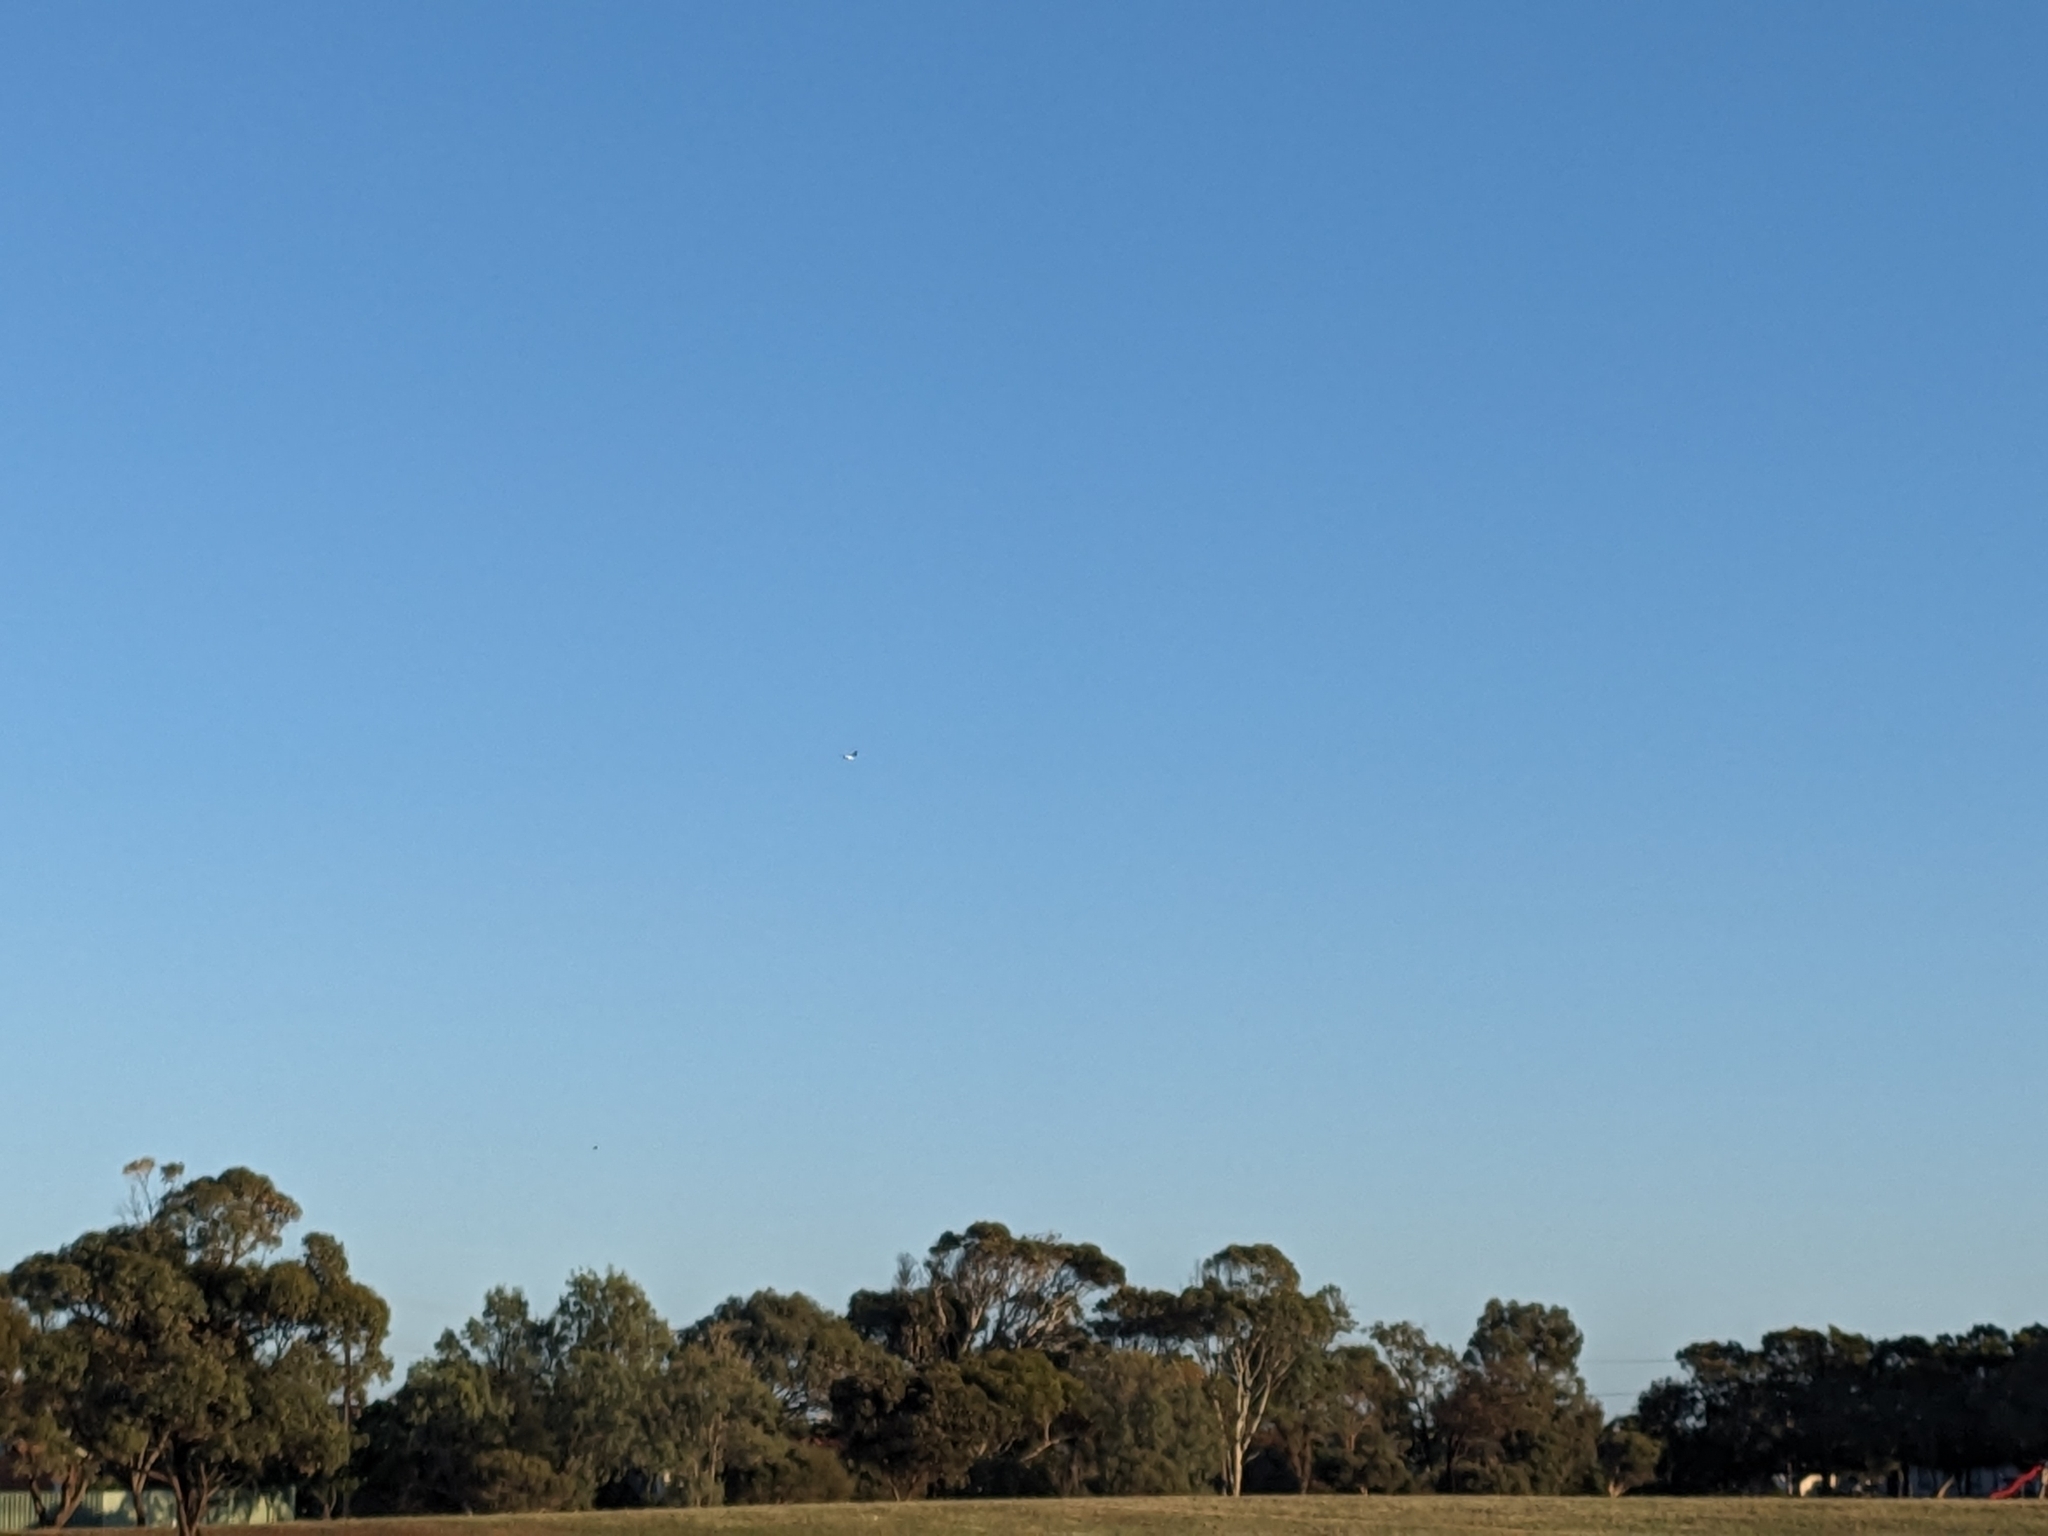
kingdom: Animalia
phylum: Chordata
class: Aves
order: Accipitriformes
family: Accipitridae
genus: Haliaeetus
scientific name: Haliaeetus leucogaster
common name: White-bellied sea eagle
